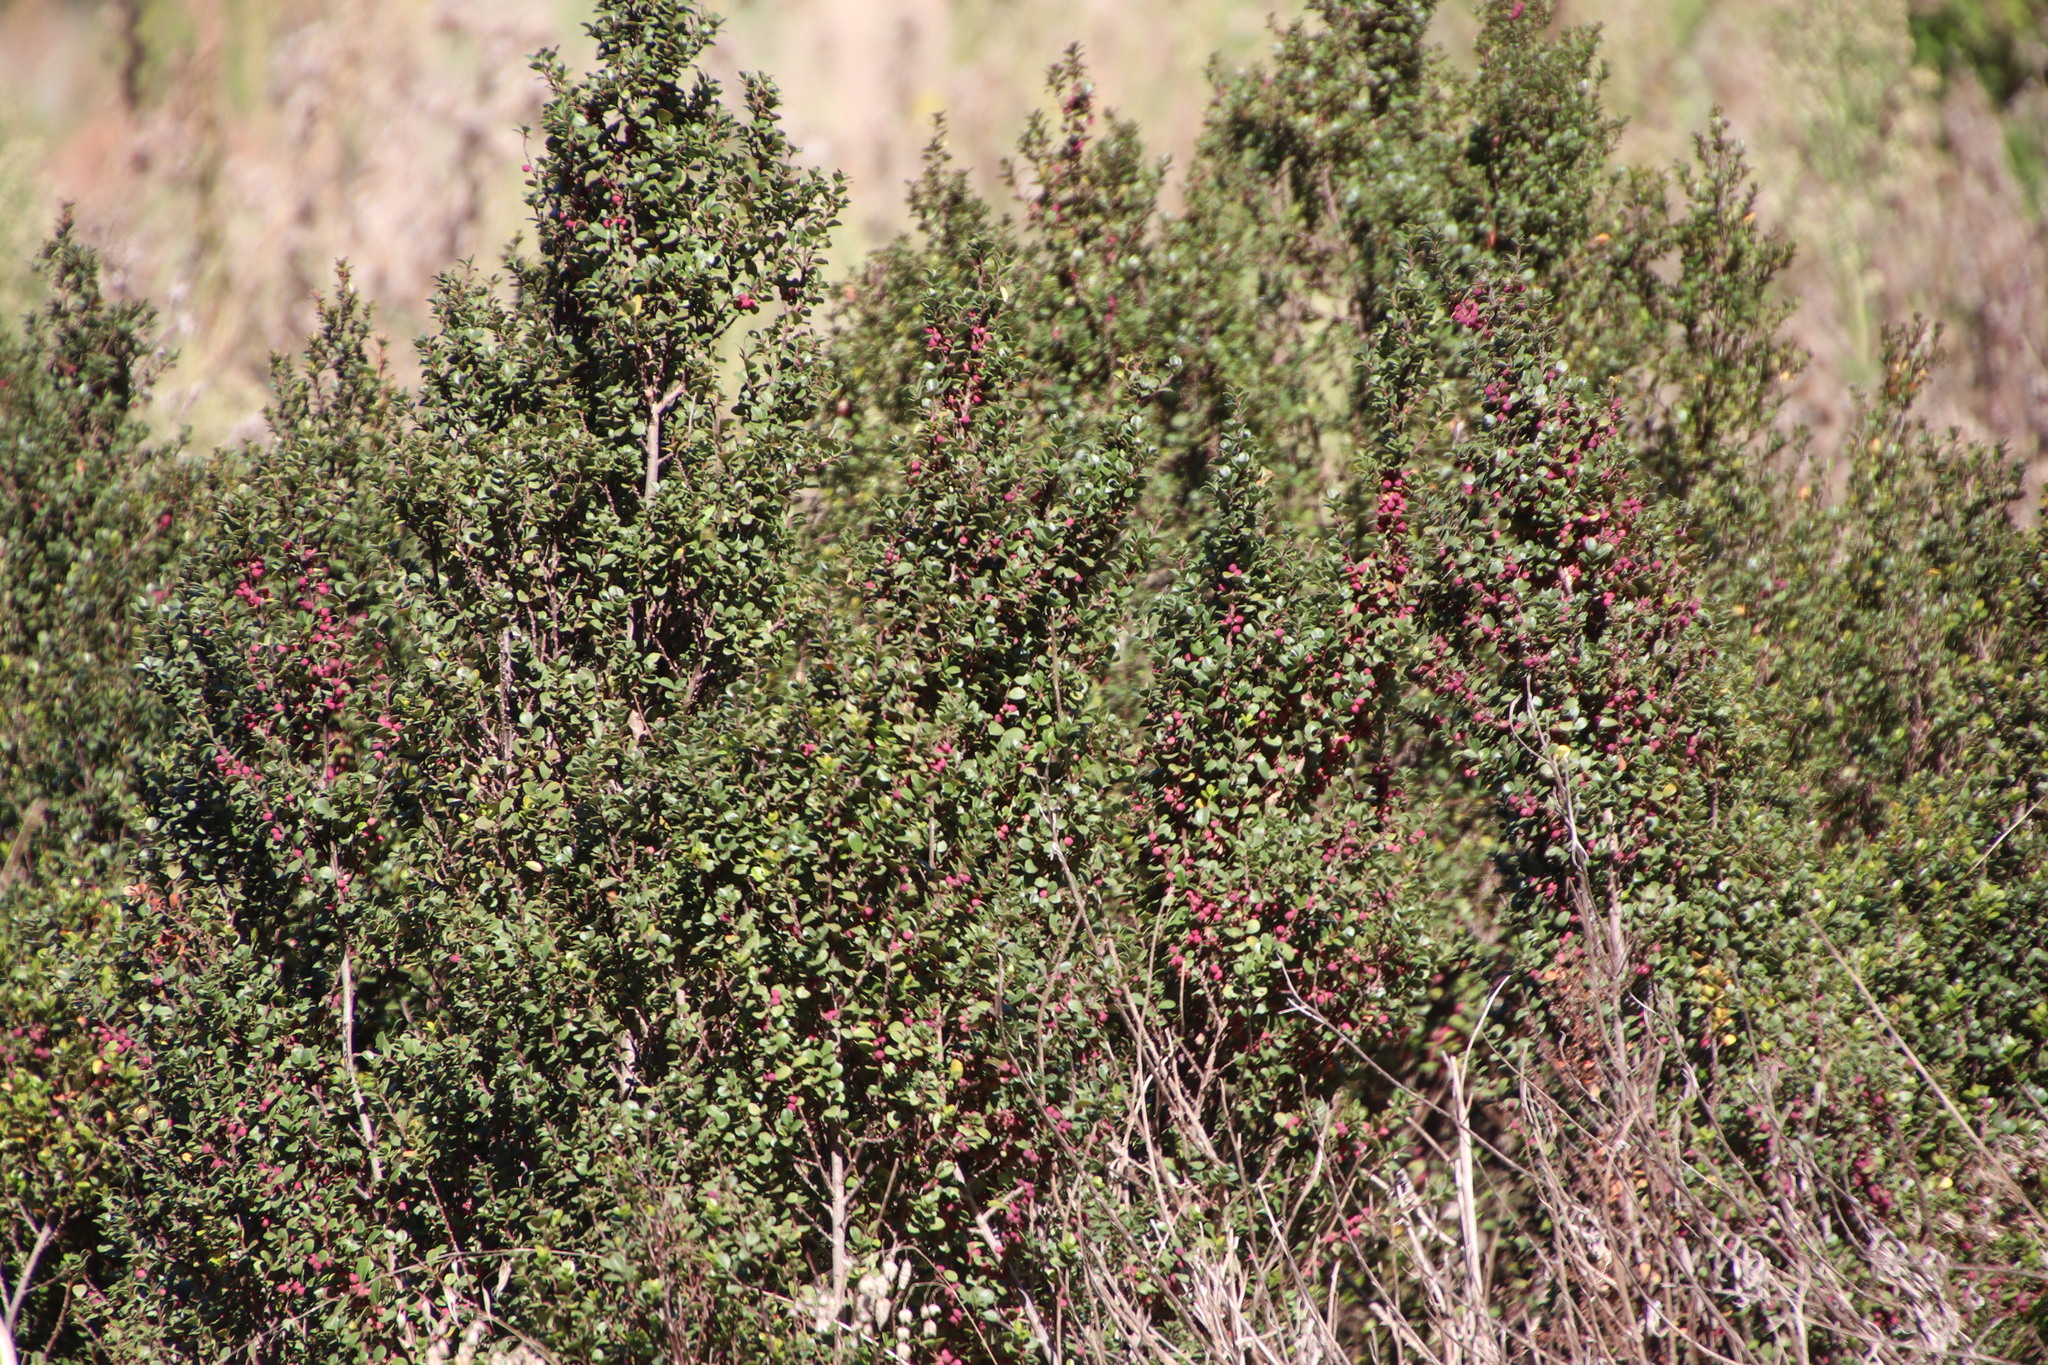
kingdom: Plantae
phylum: Tracheophyta
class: Magnoliopsida
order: Ericales
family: Primulaceae
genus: Myrsine
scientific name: Myrsine africana
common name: African-boxwood
